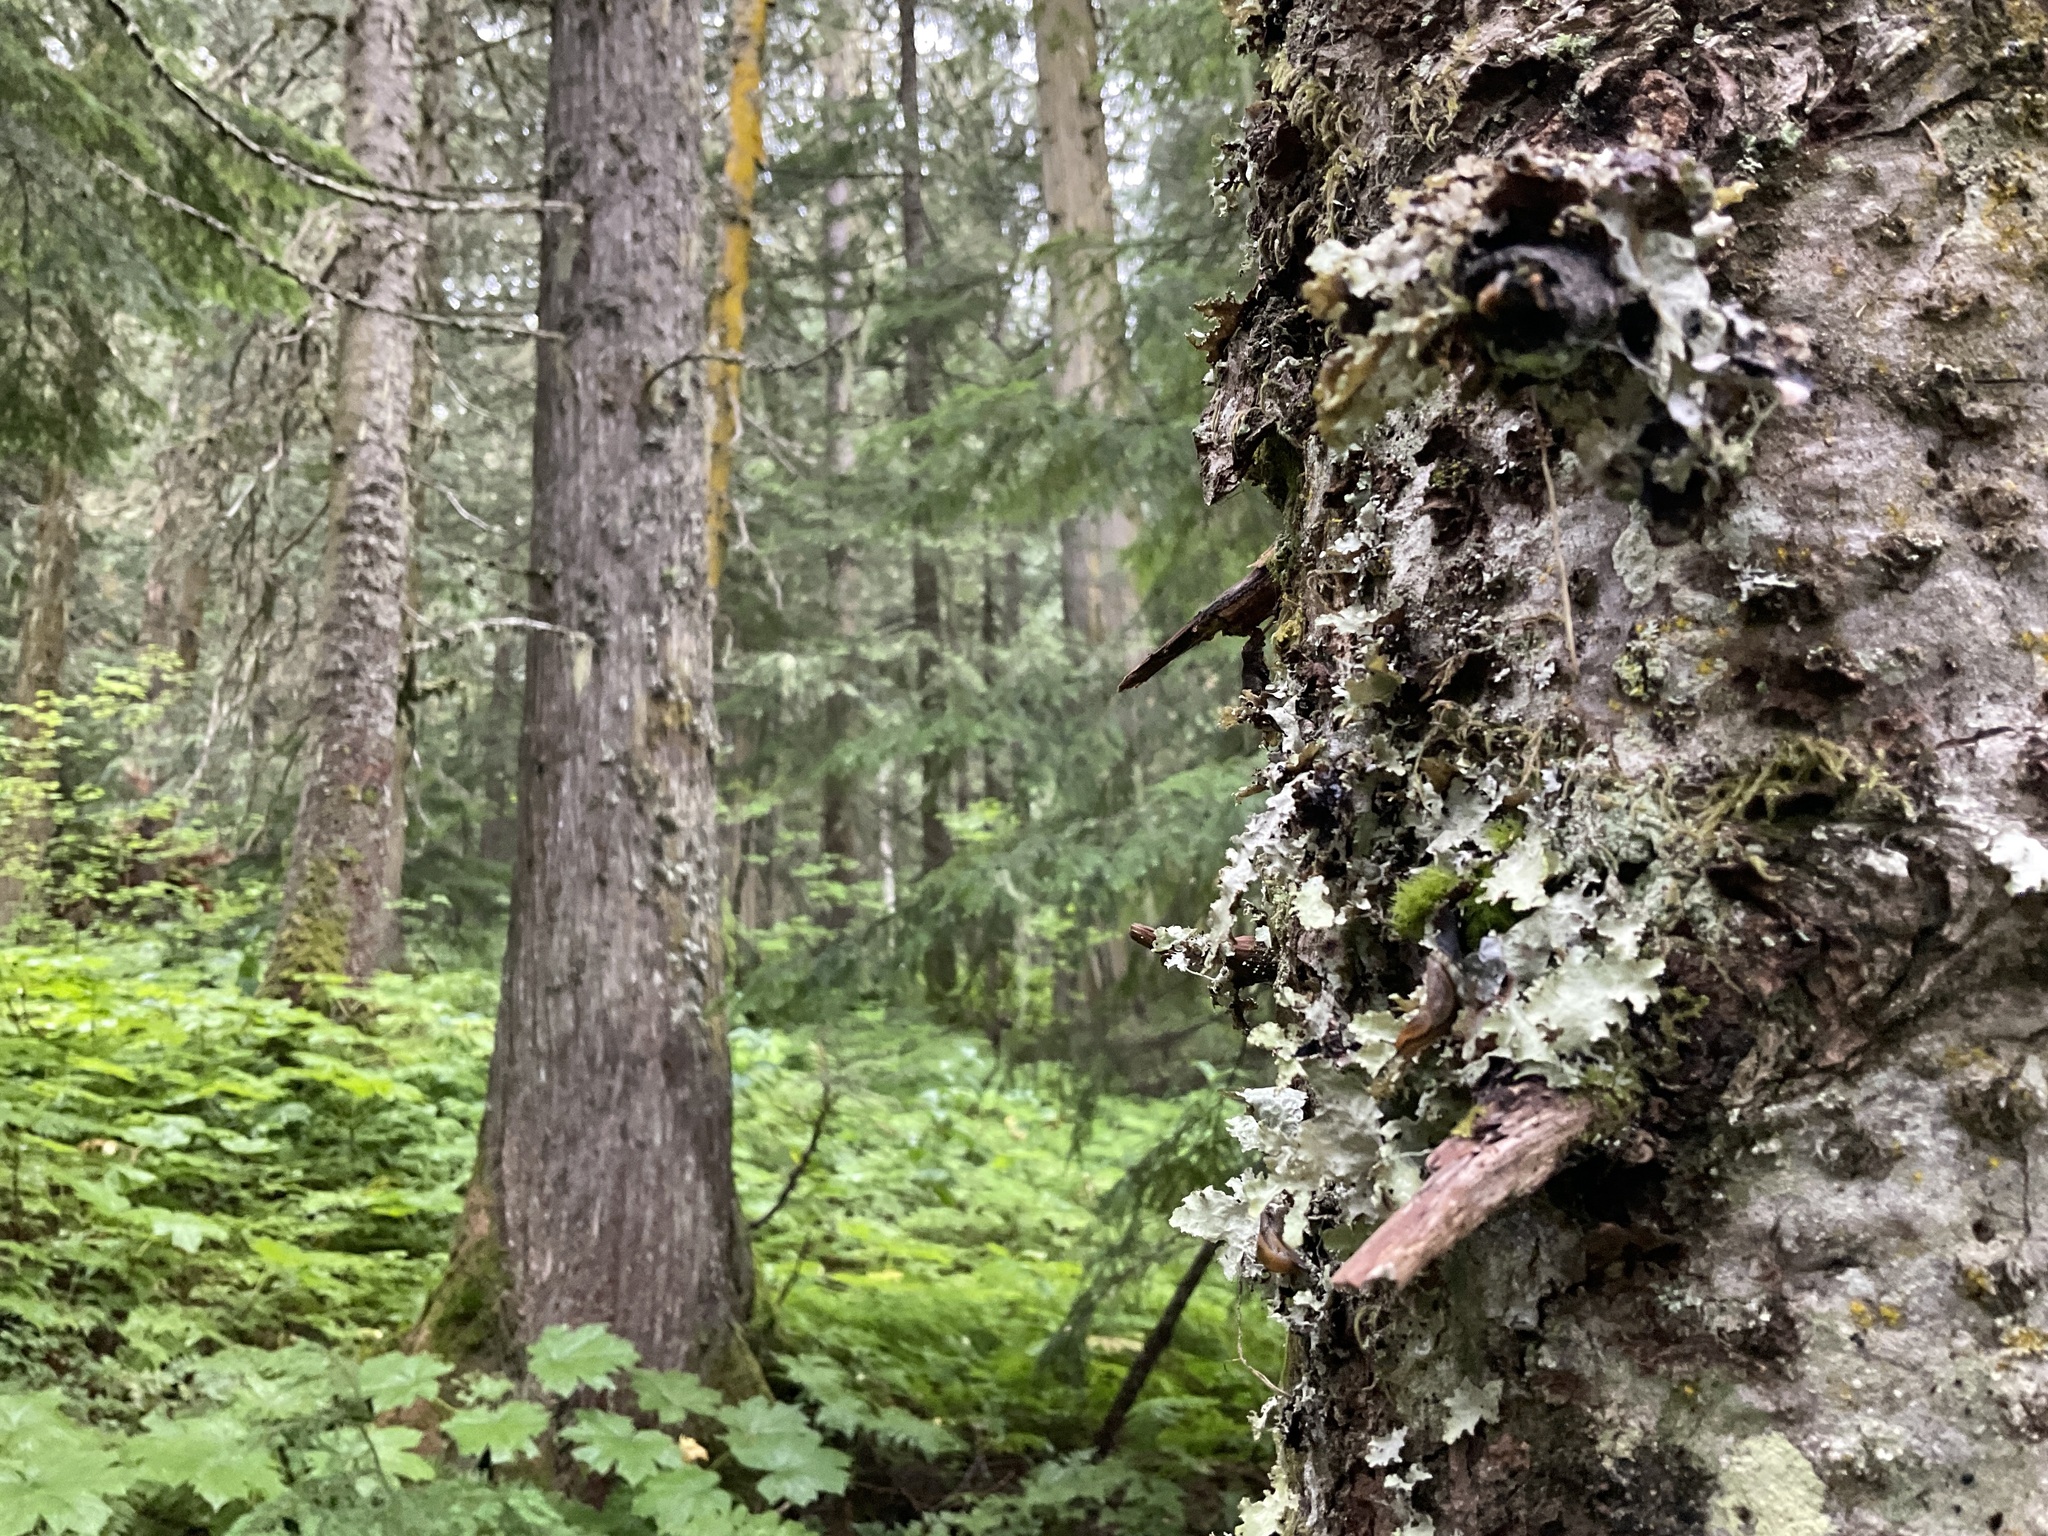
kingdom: Fungi
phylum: Ascomycota
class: Lecanoromycetes
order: Lecanorales
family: Parmeliaceae
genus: Platismatia
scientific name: Platismatia glauca
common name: Varied rag lichen
